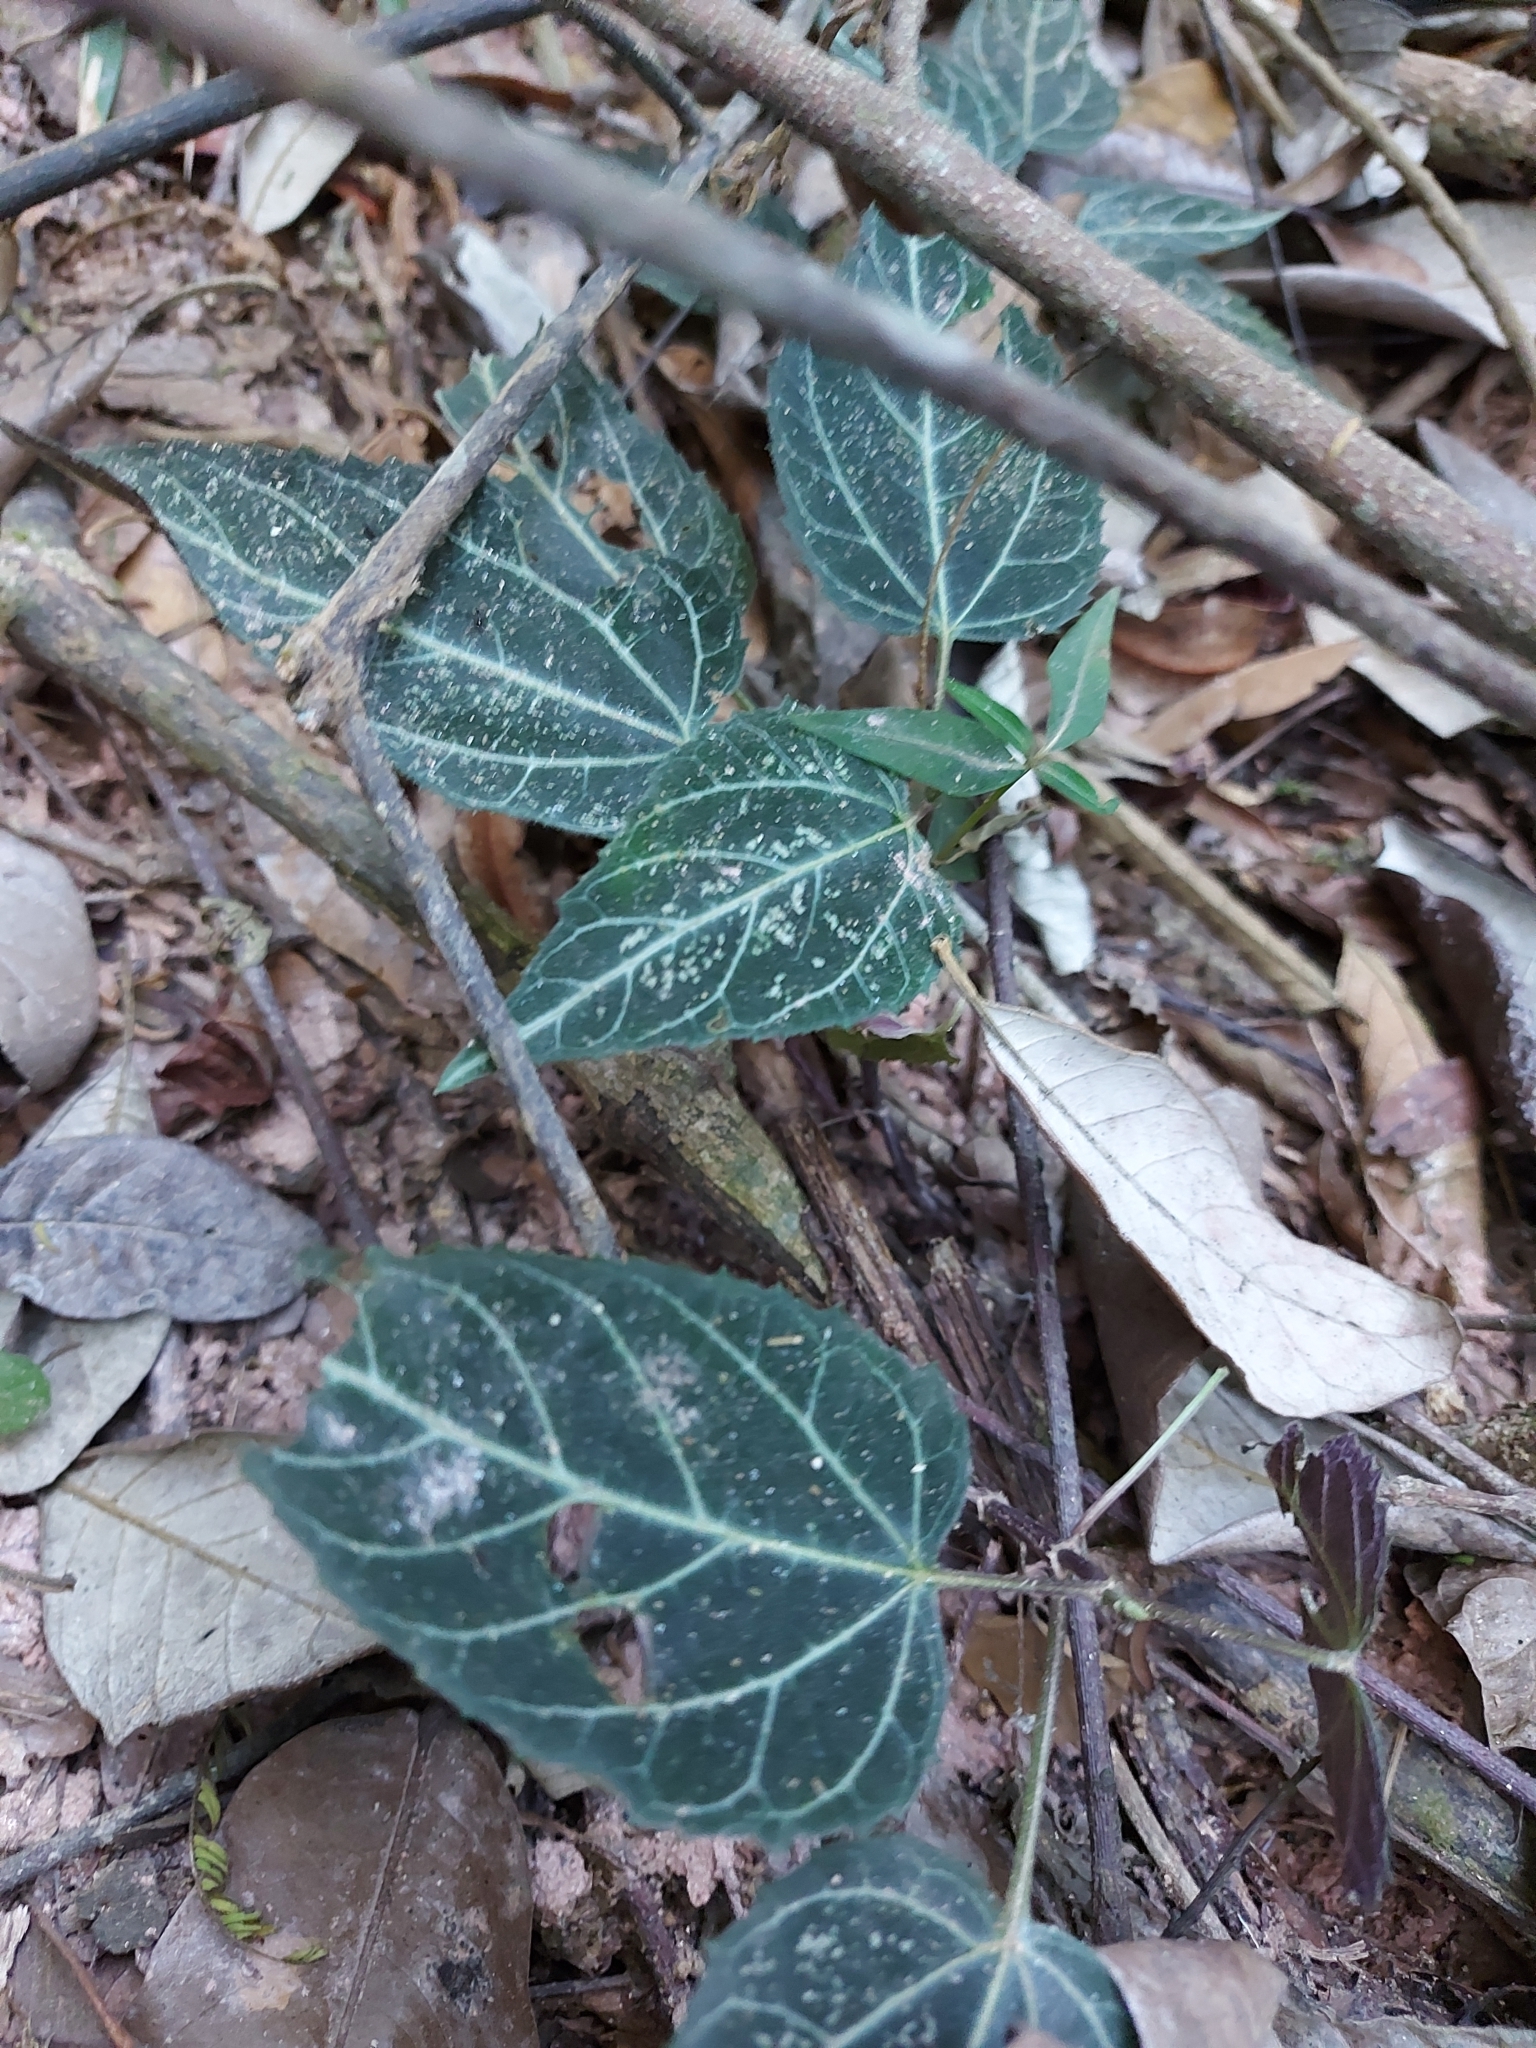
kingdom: Plantae
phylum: Tracheophyta
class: Magnoliopsida
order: Asterales
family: Asteraceae
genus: Mikania
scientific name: Mikania hemisphaerica
